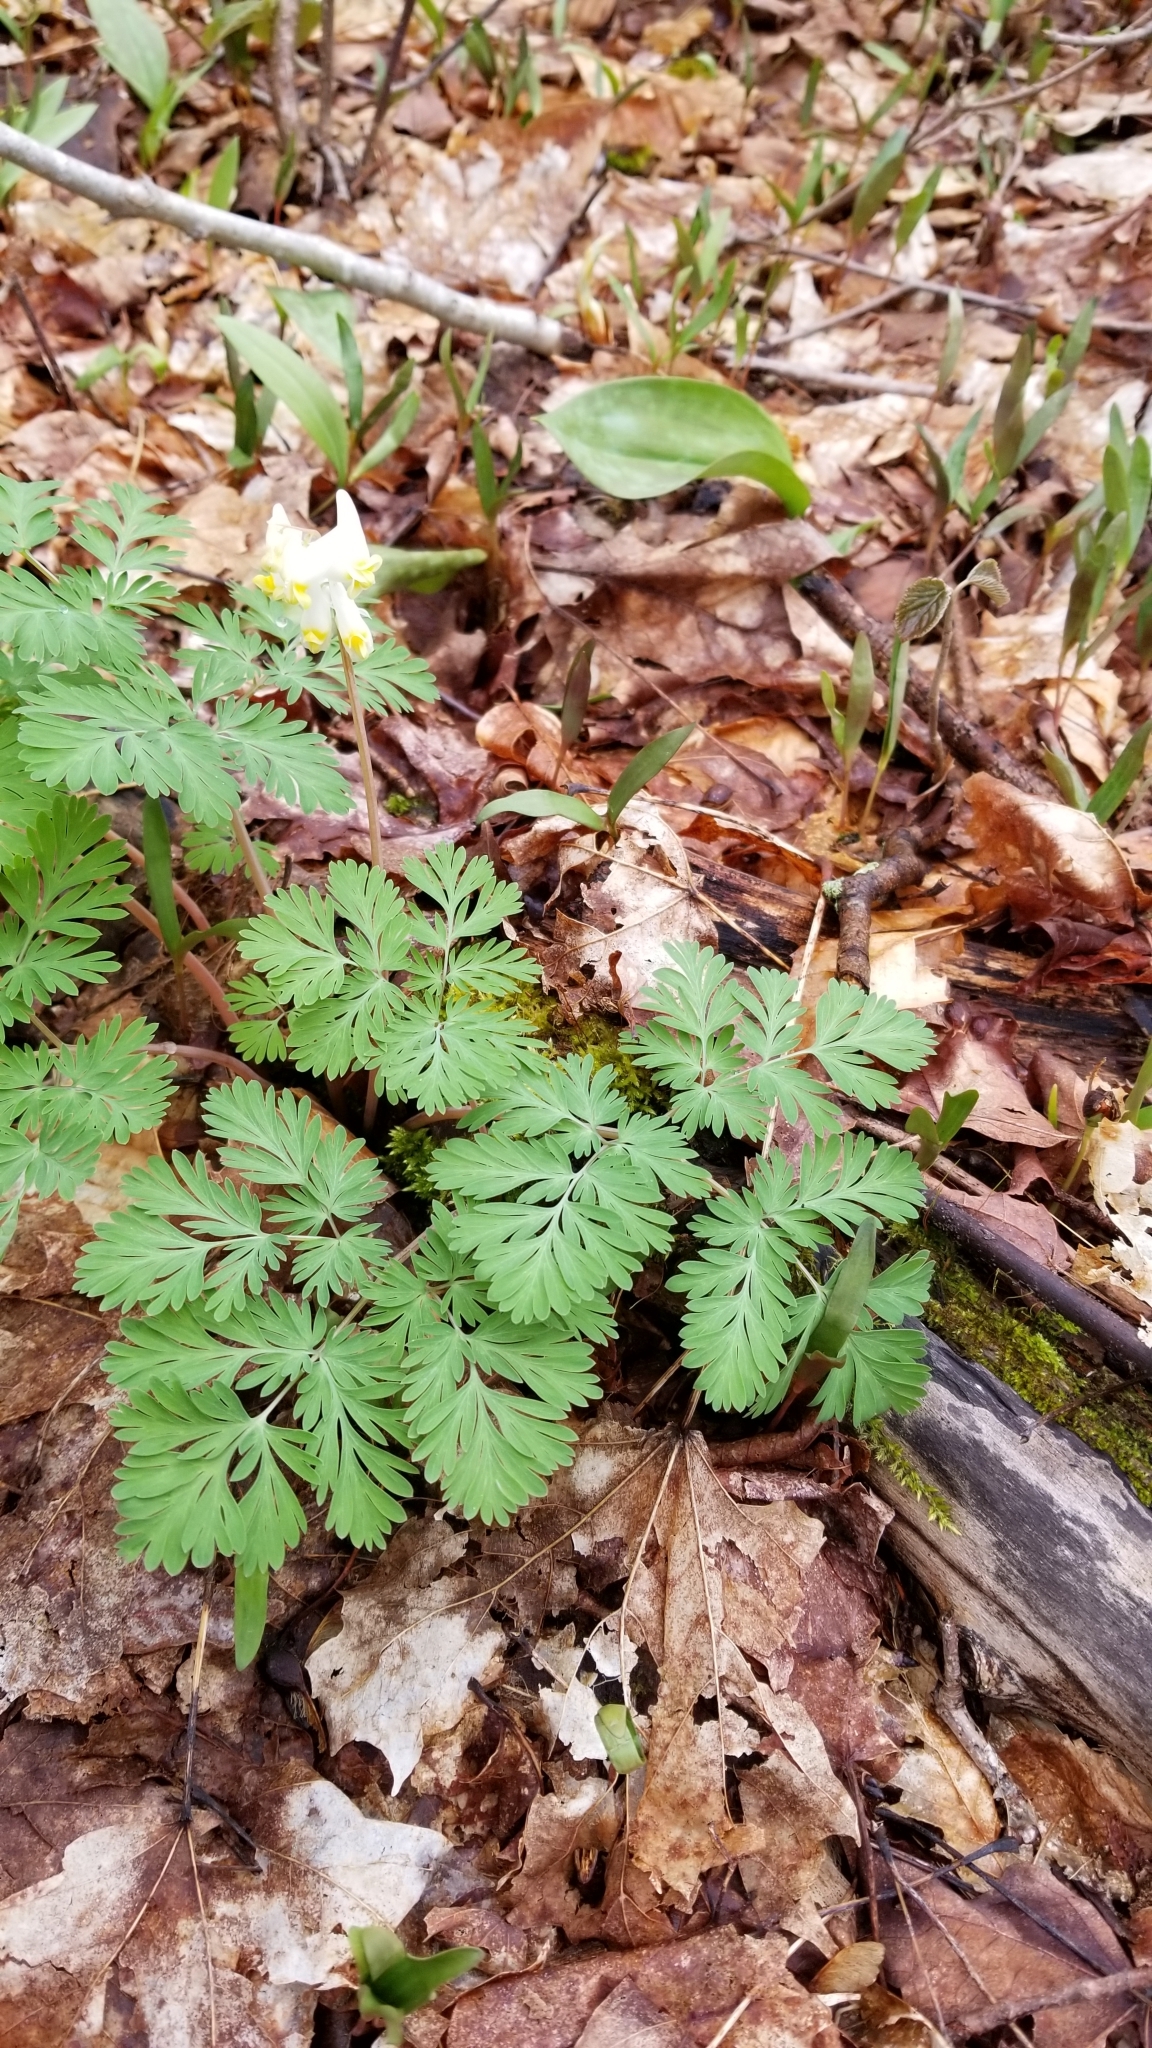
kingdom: Plantae
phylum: Tracheophyta
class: Magnoliopsida
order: Ranunculales
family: Papaveraceae
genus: Dicentra
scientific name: Dicentra cucullaria
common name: Dutchman's breeches
